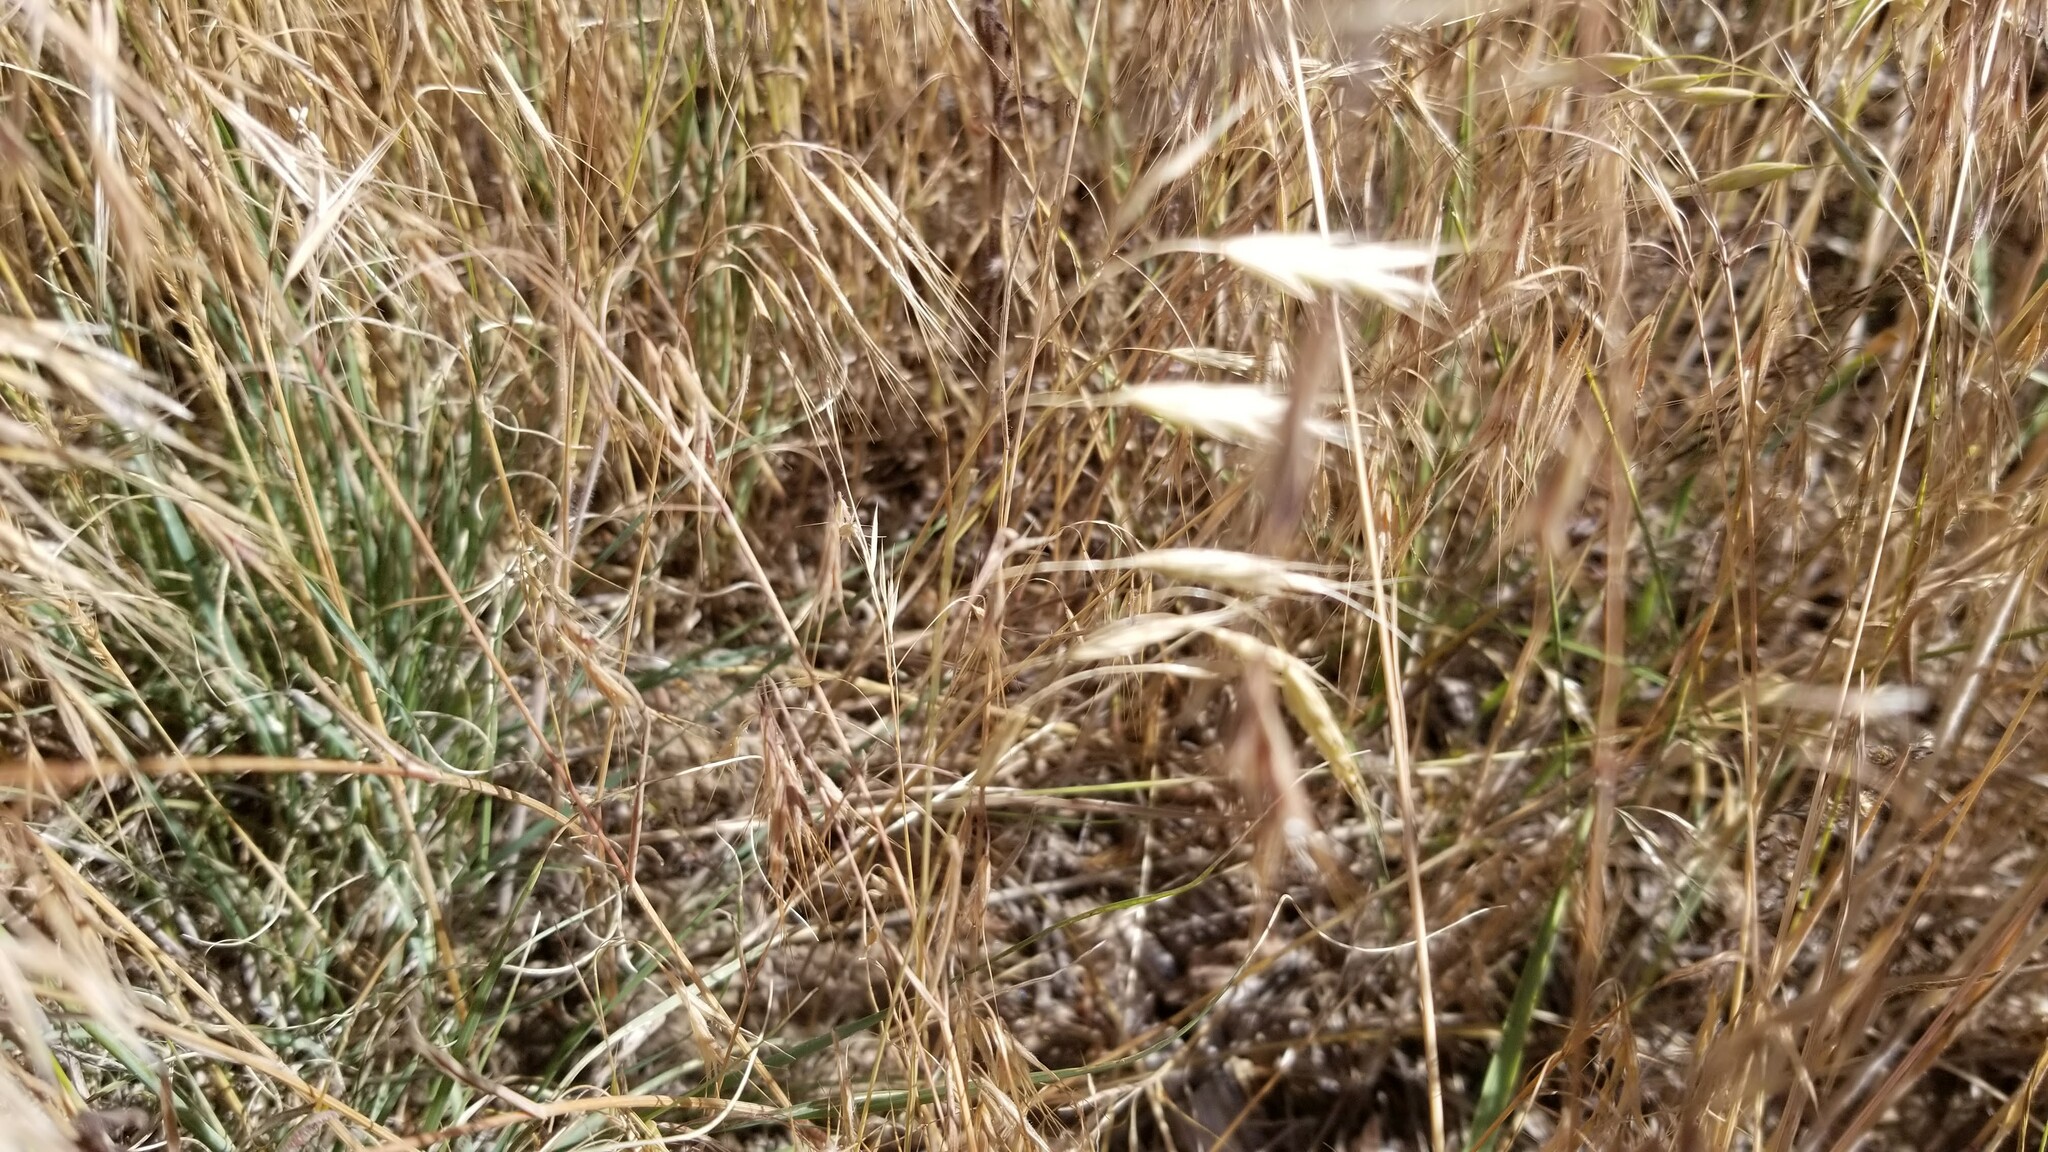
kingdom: Plantae
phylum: Tracheophyta
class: Liliopsida
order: Poales
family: Poaceae
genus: Bromus
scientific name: Bromus tectorum
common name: Cheatgrass
